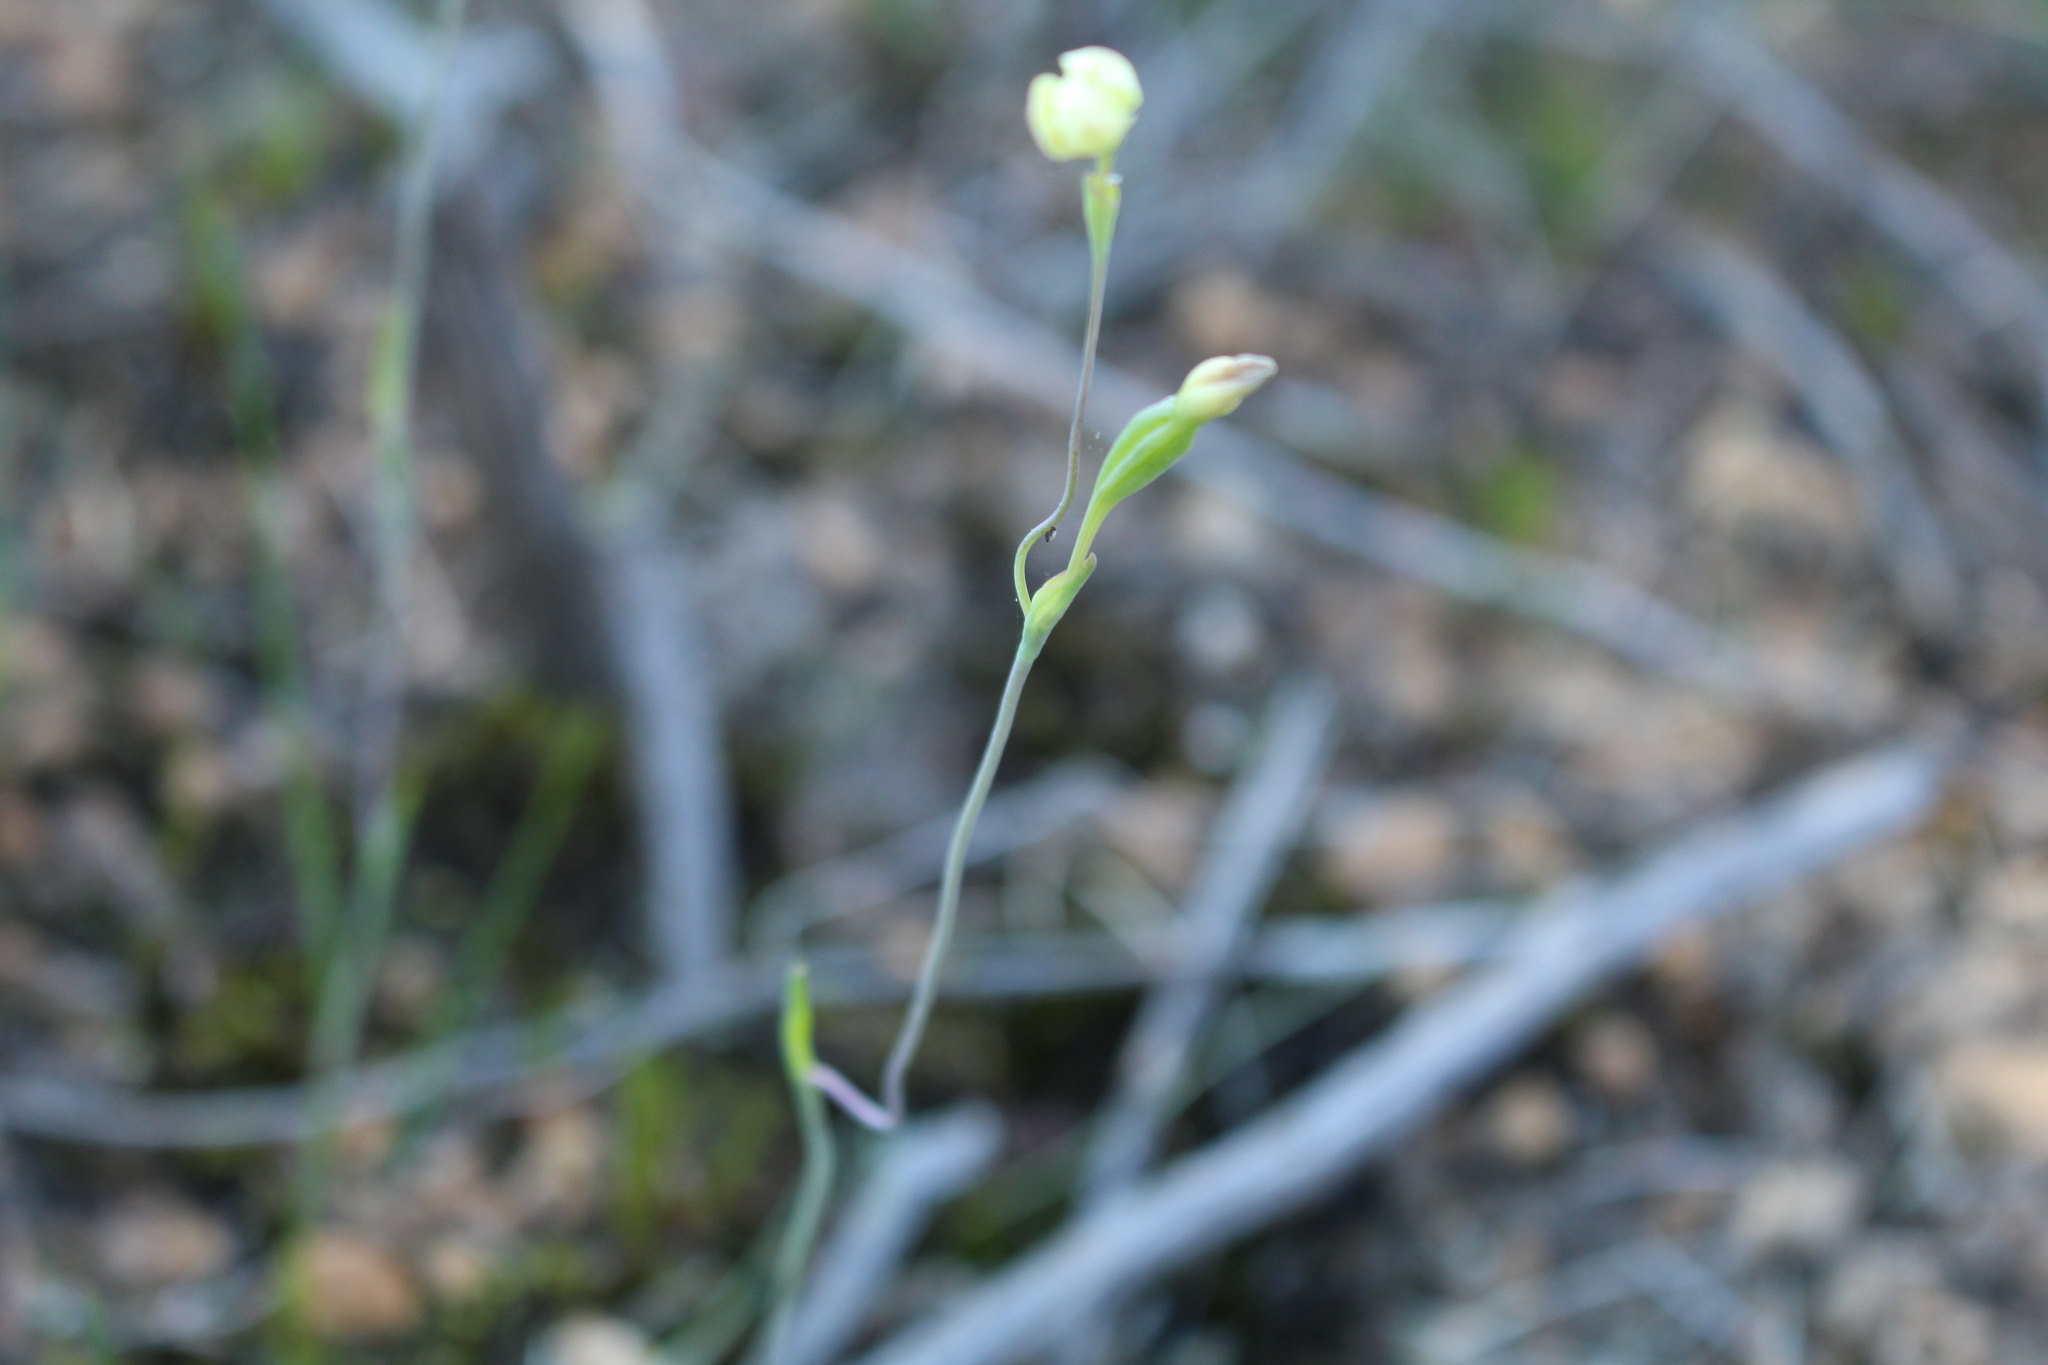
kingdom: Plantae
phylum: Tracheophyta
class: Liliopsida
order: Asparagales
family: Orchidaceae
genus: Thelymitra
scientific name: Thelymitra flexuosa
